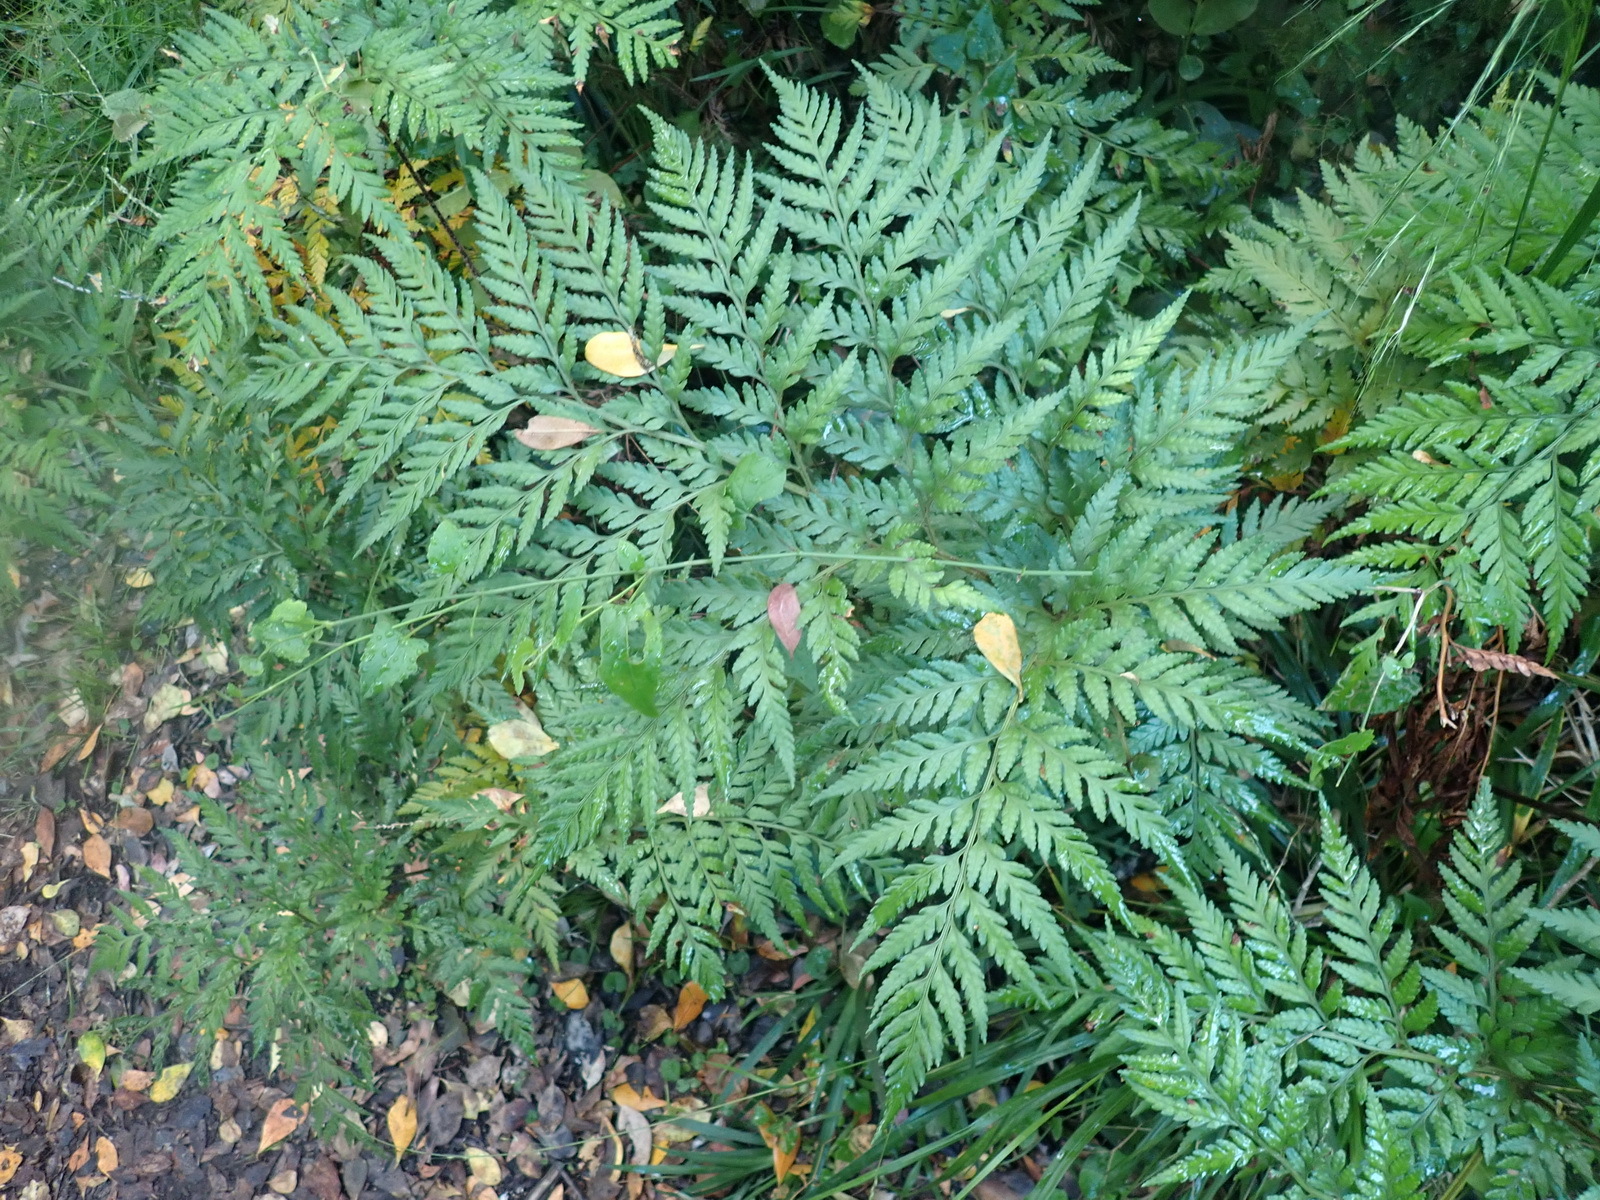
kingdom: Plantae
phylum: Tracheophyta
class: Polypodiopsida
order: Polypodiales
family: Dryopteridaceae
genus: Rumohra
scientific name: Rumohra adiantiformis
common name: Leather fern
